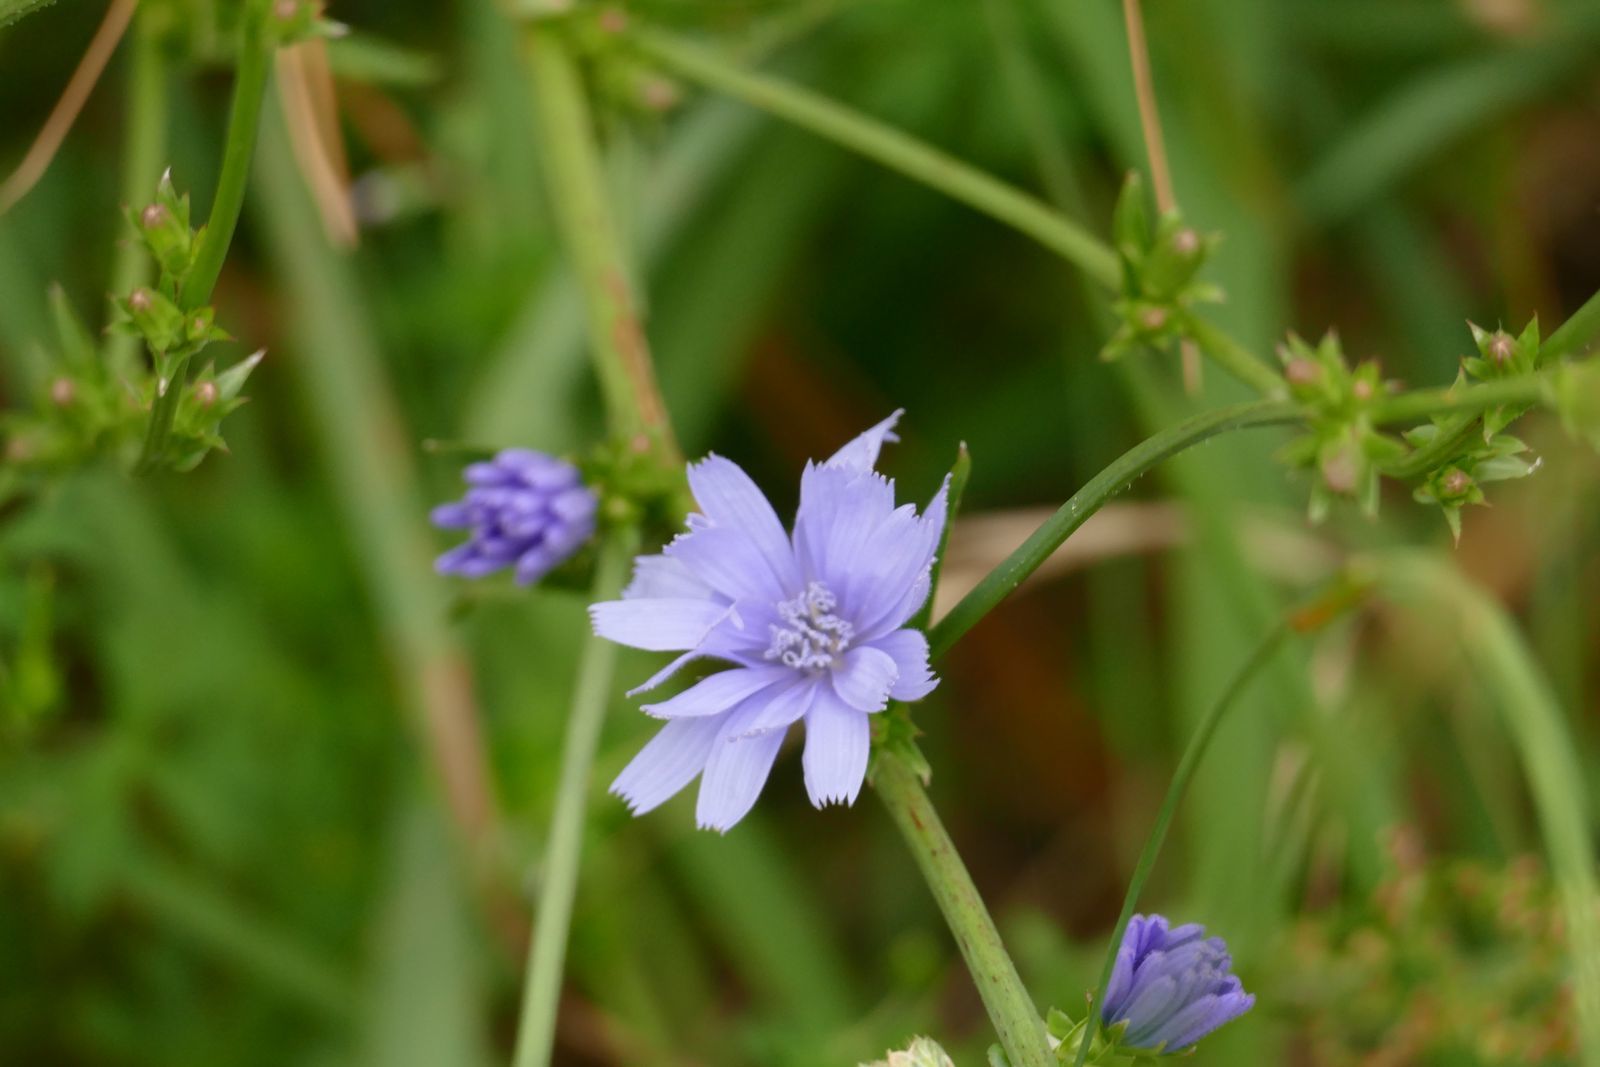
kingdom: Plantae
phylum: Tracheophyta
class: Magnoliopsida
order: Asterales
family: Asteraceae
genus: Cichorium
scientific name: Cichorium intybus
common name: Chicory
